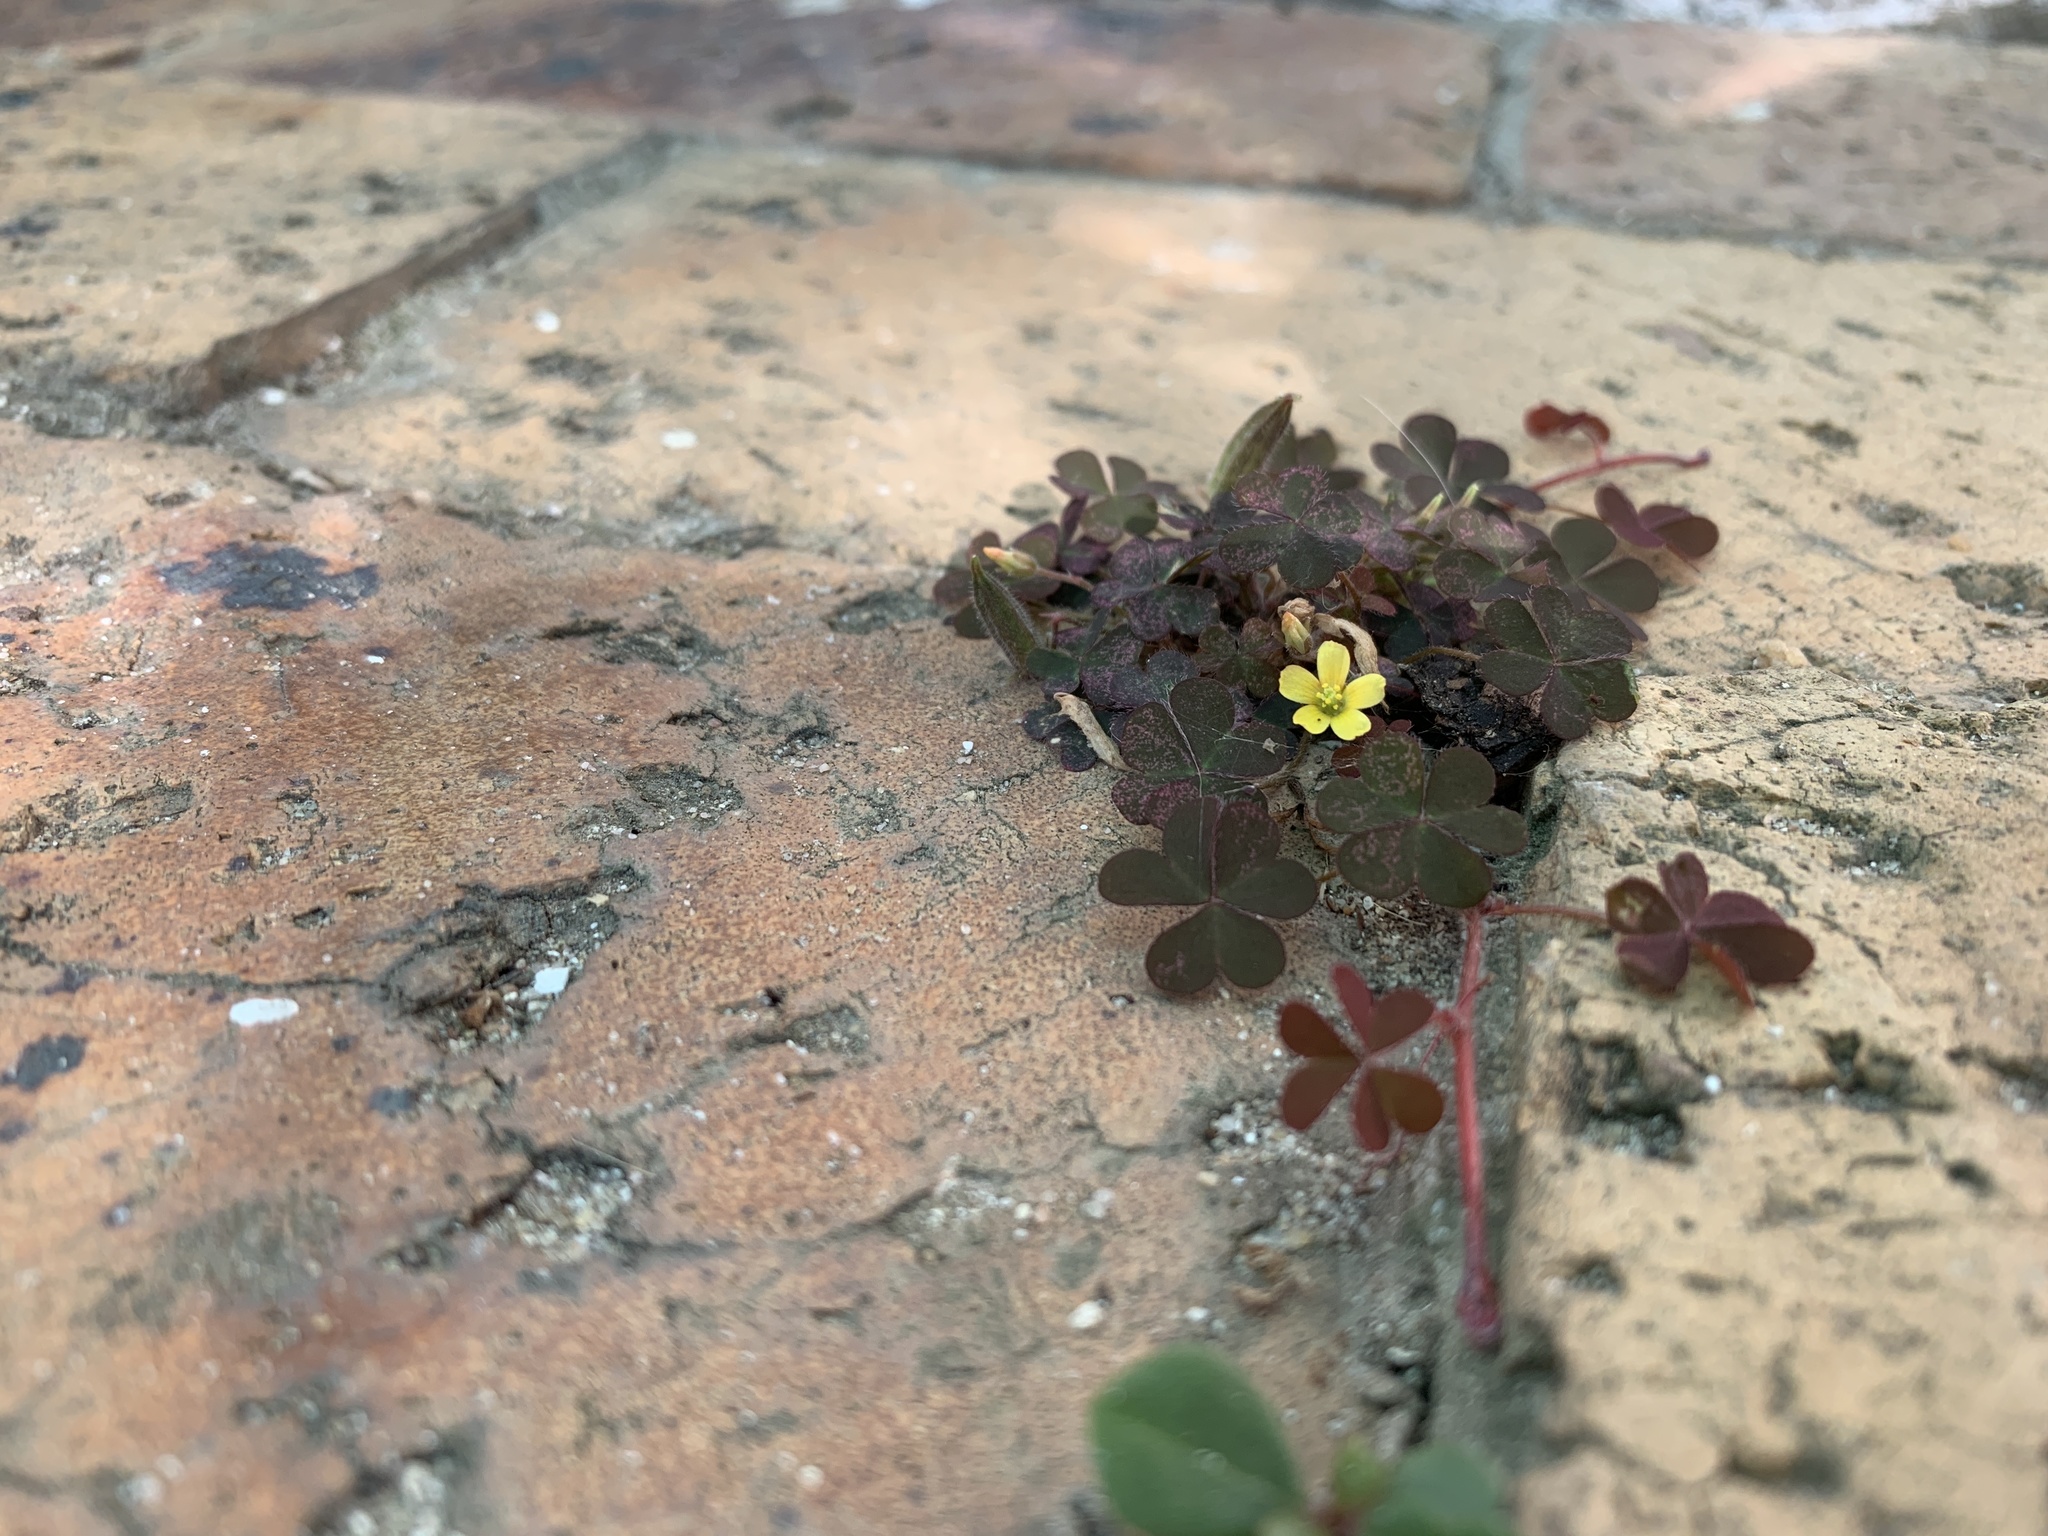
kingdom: Plantae
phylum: Tracheophyta
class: Magnoliopsida
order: Oxalidales
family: Oxalidaceae
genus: Oxalis
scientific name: Oxalis corniculata
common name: Procumbent yellow-sorrel
